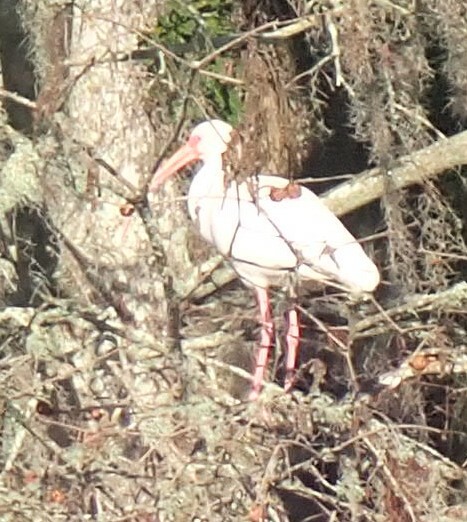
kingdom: Animalia
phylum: Chordata
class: Aves
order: Pelecaniformes
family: Threskiornithidae
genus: Eudocimus
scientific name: Eudocimus albus
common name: White ibis
